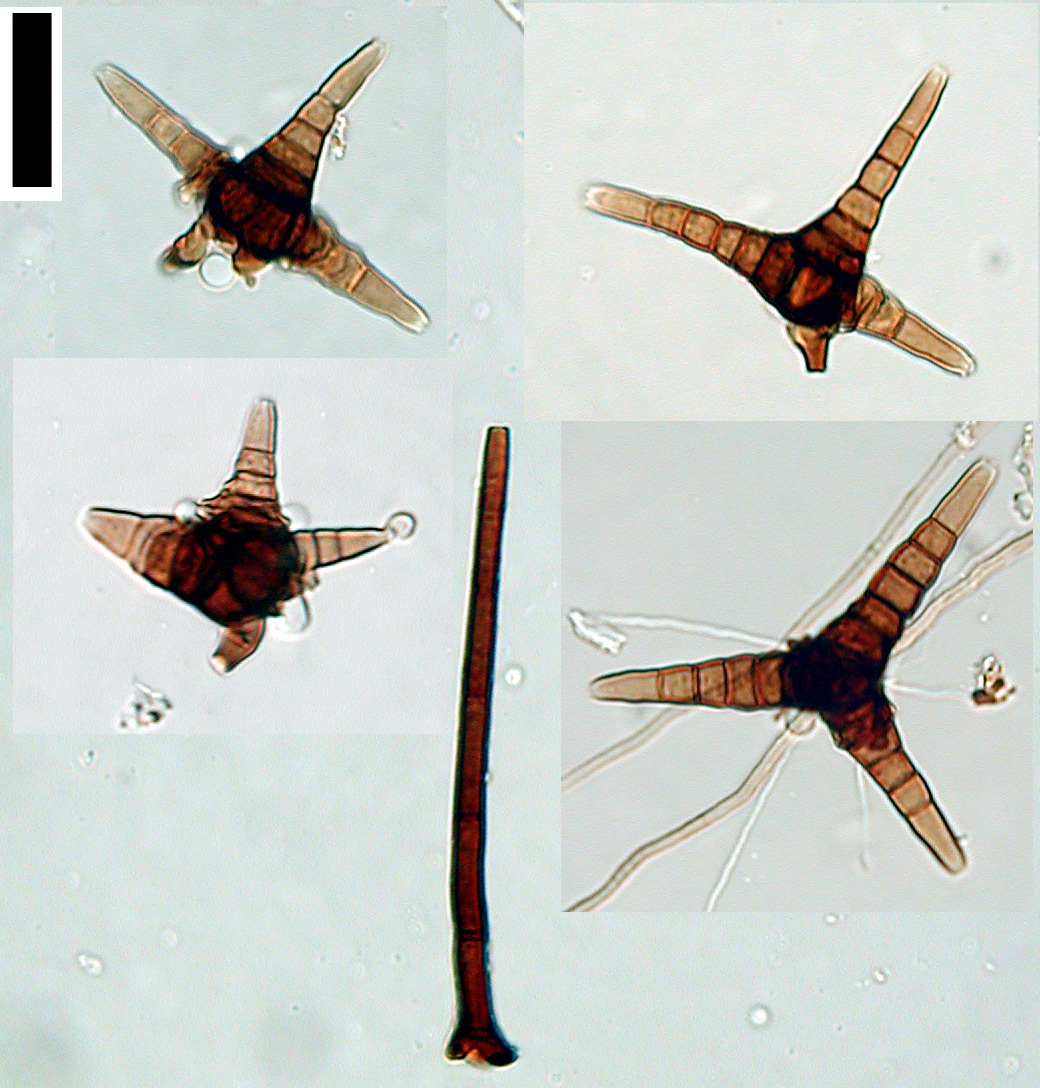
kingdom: Fungi
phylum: Ascomycota
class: Leotiomycetes
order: Helotiales
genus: Triposporium
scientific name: Triposporium elegans
